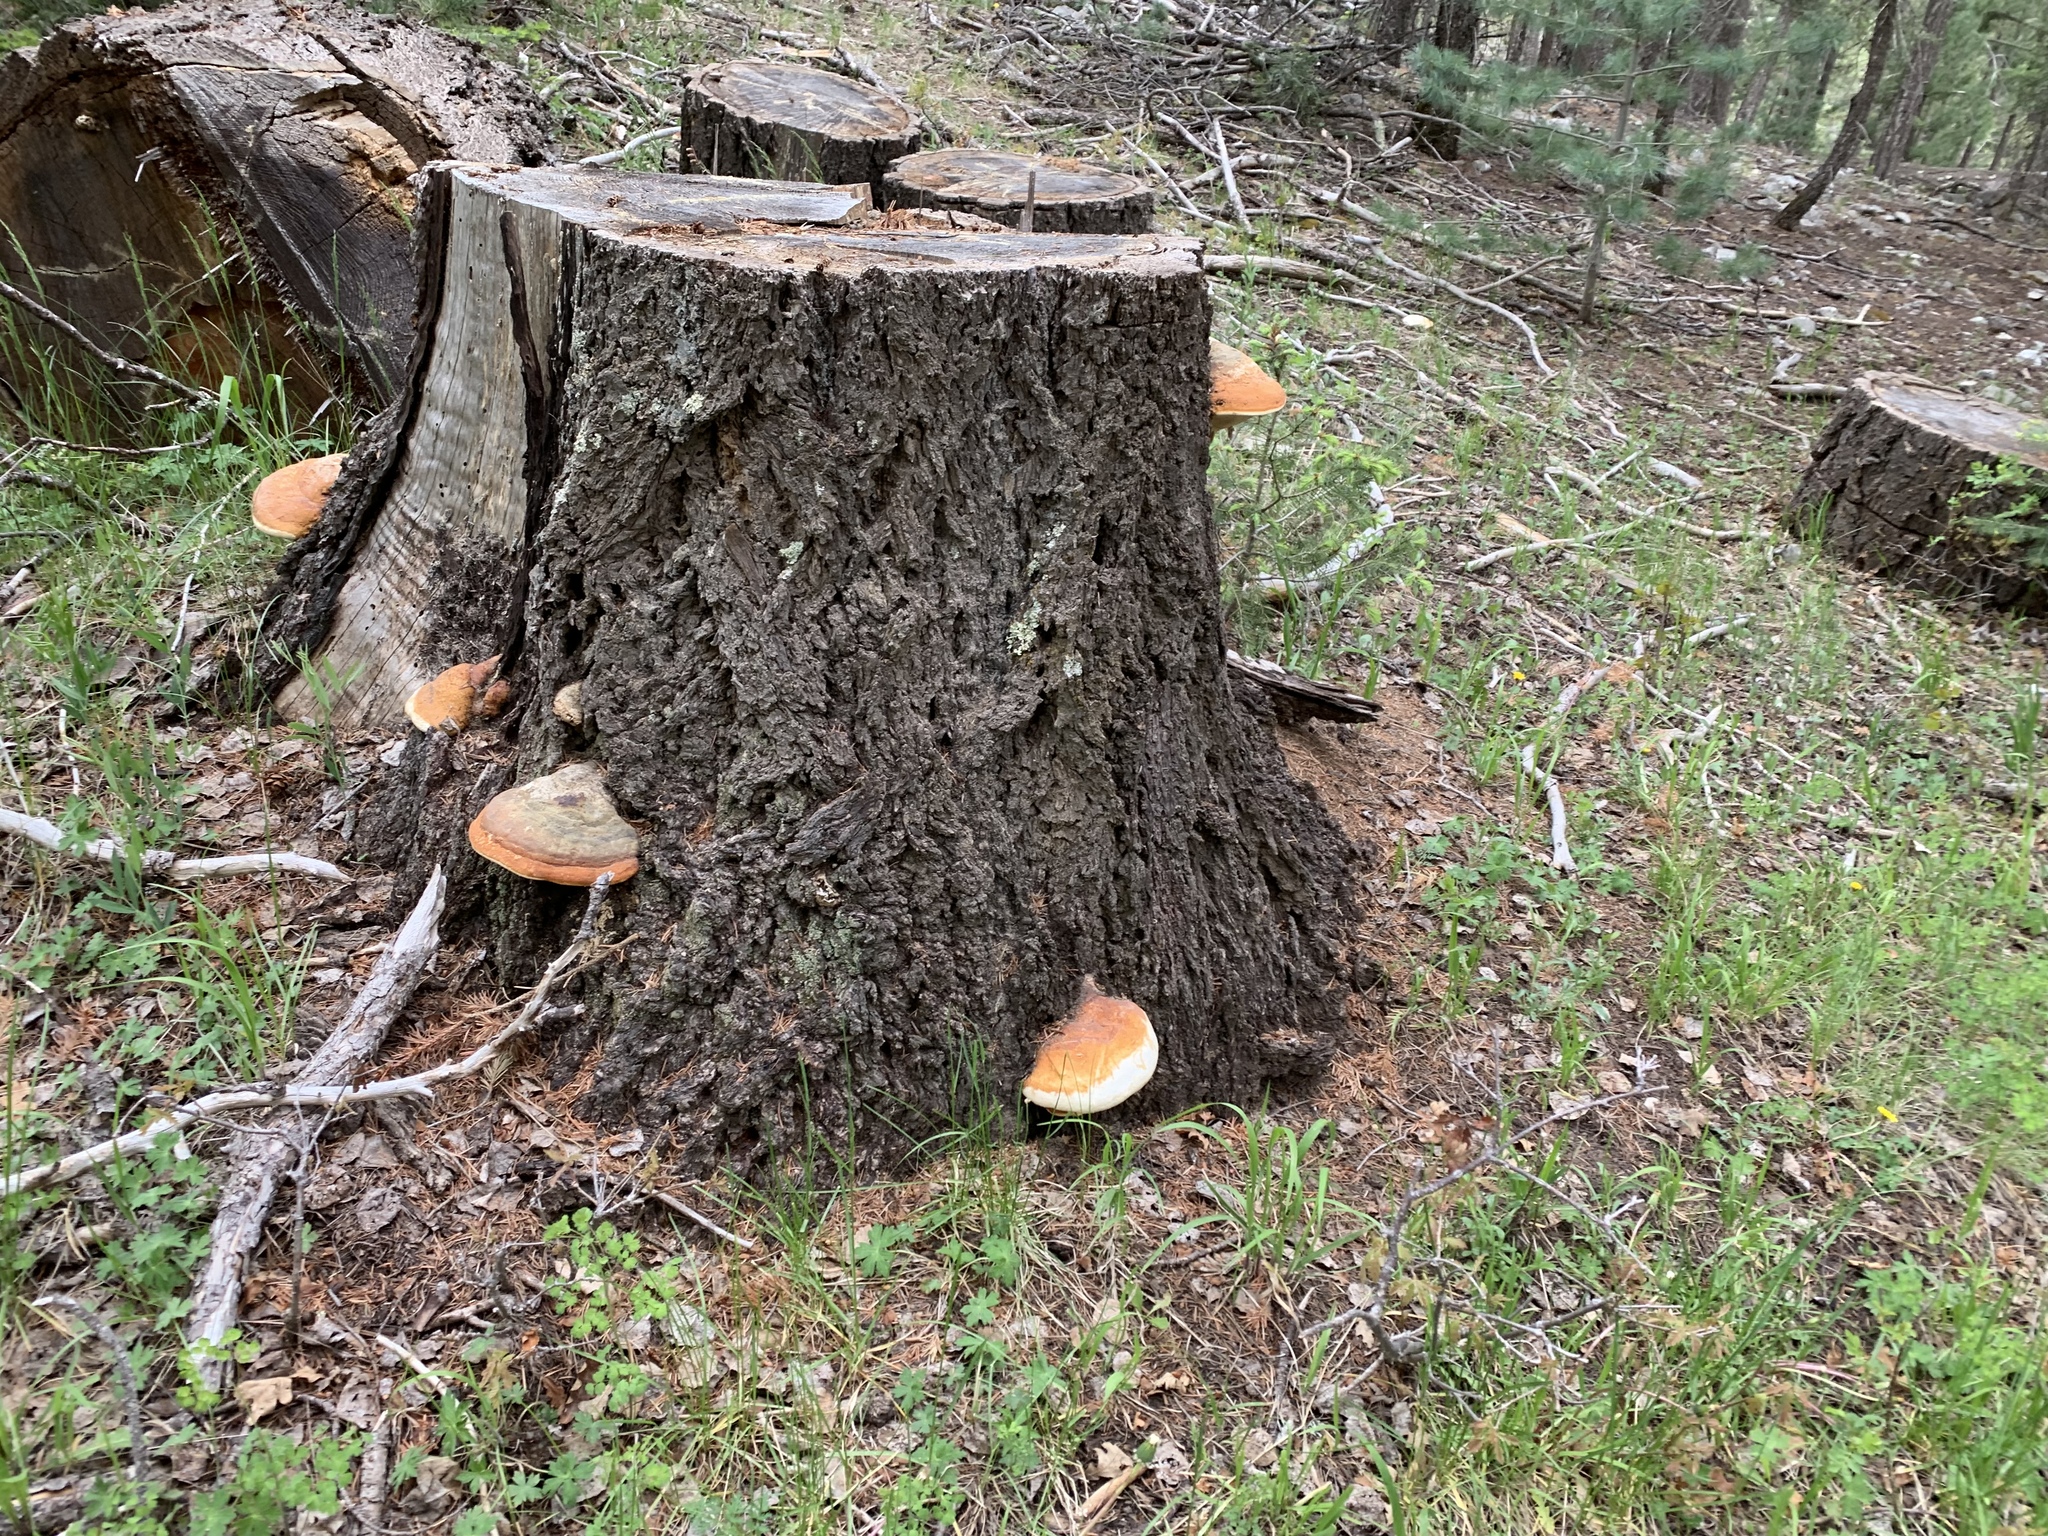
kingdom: Fungi
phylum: Basidiomycota
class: Agaricomycetes
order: Polyporales
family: Fomitopsidaceae
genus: Fomitopsis
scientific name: Fomitopsis schrenkii
